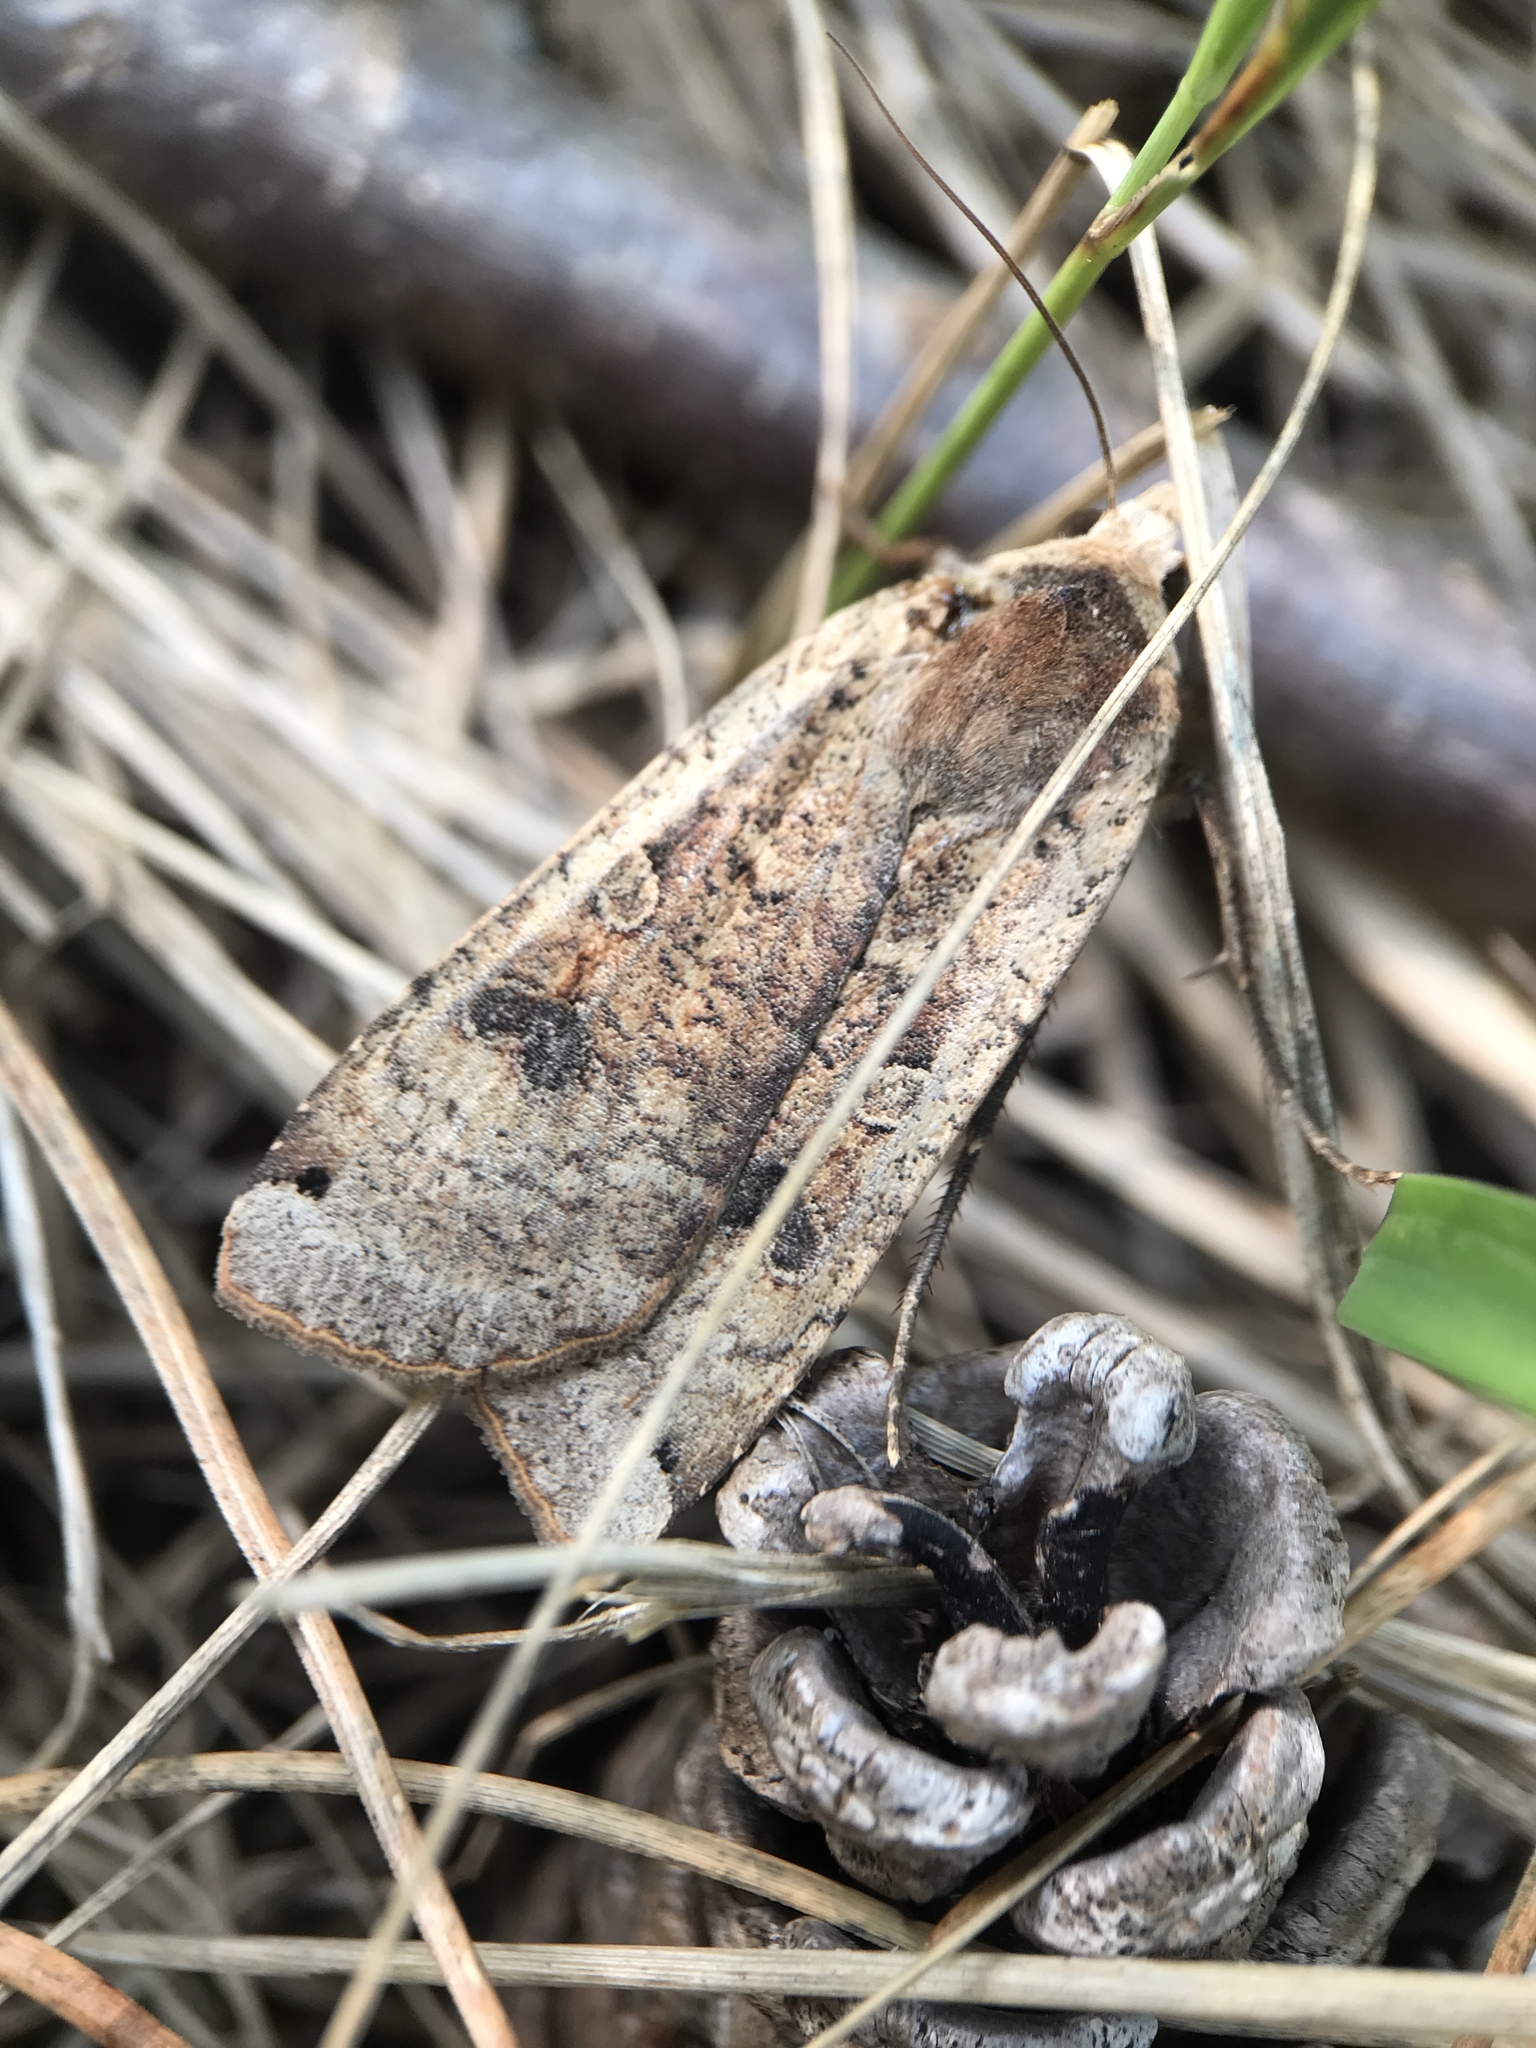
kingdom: Animalia
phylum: Arthropoda
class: Insecta
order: Lepidoptera
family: Noctuidae
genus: Noctua
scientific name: Noctua pronuba
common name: Large yellow underwing
